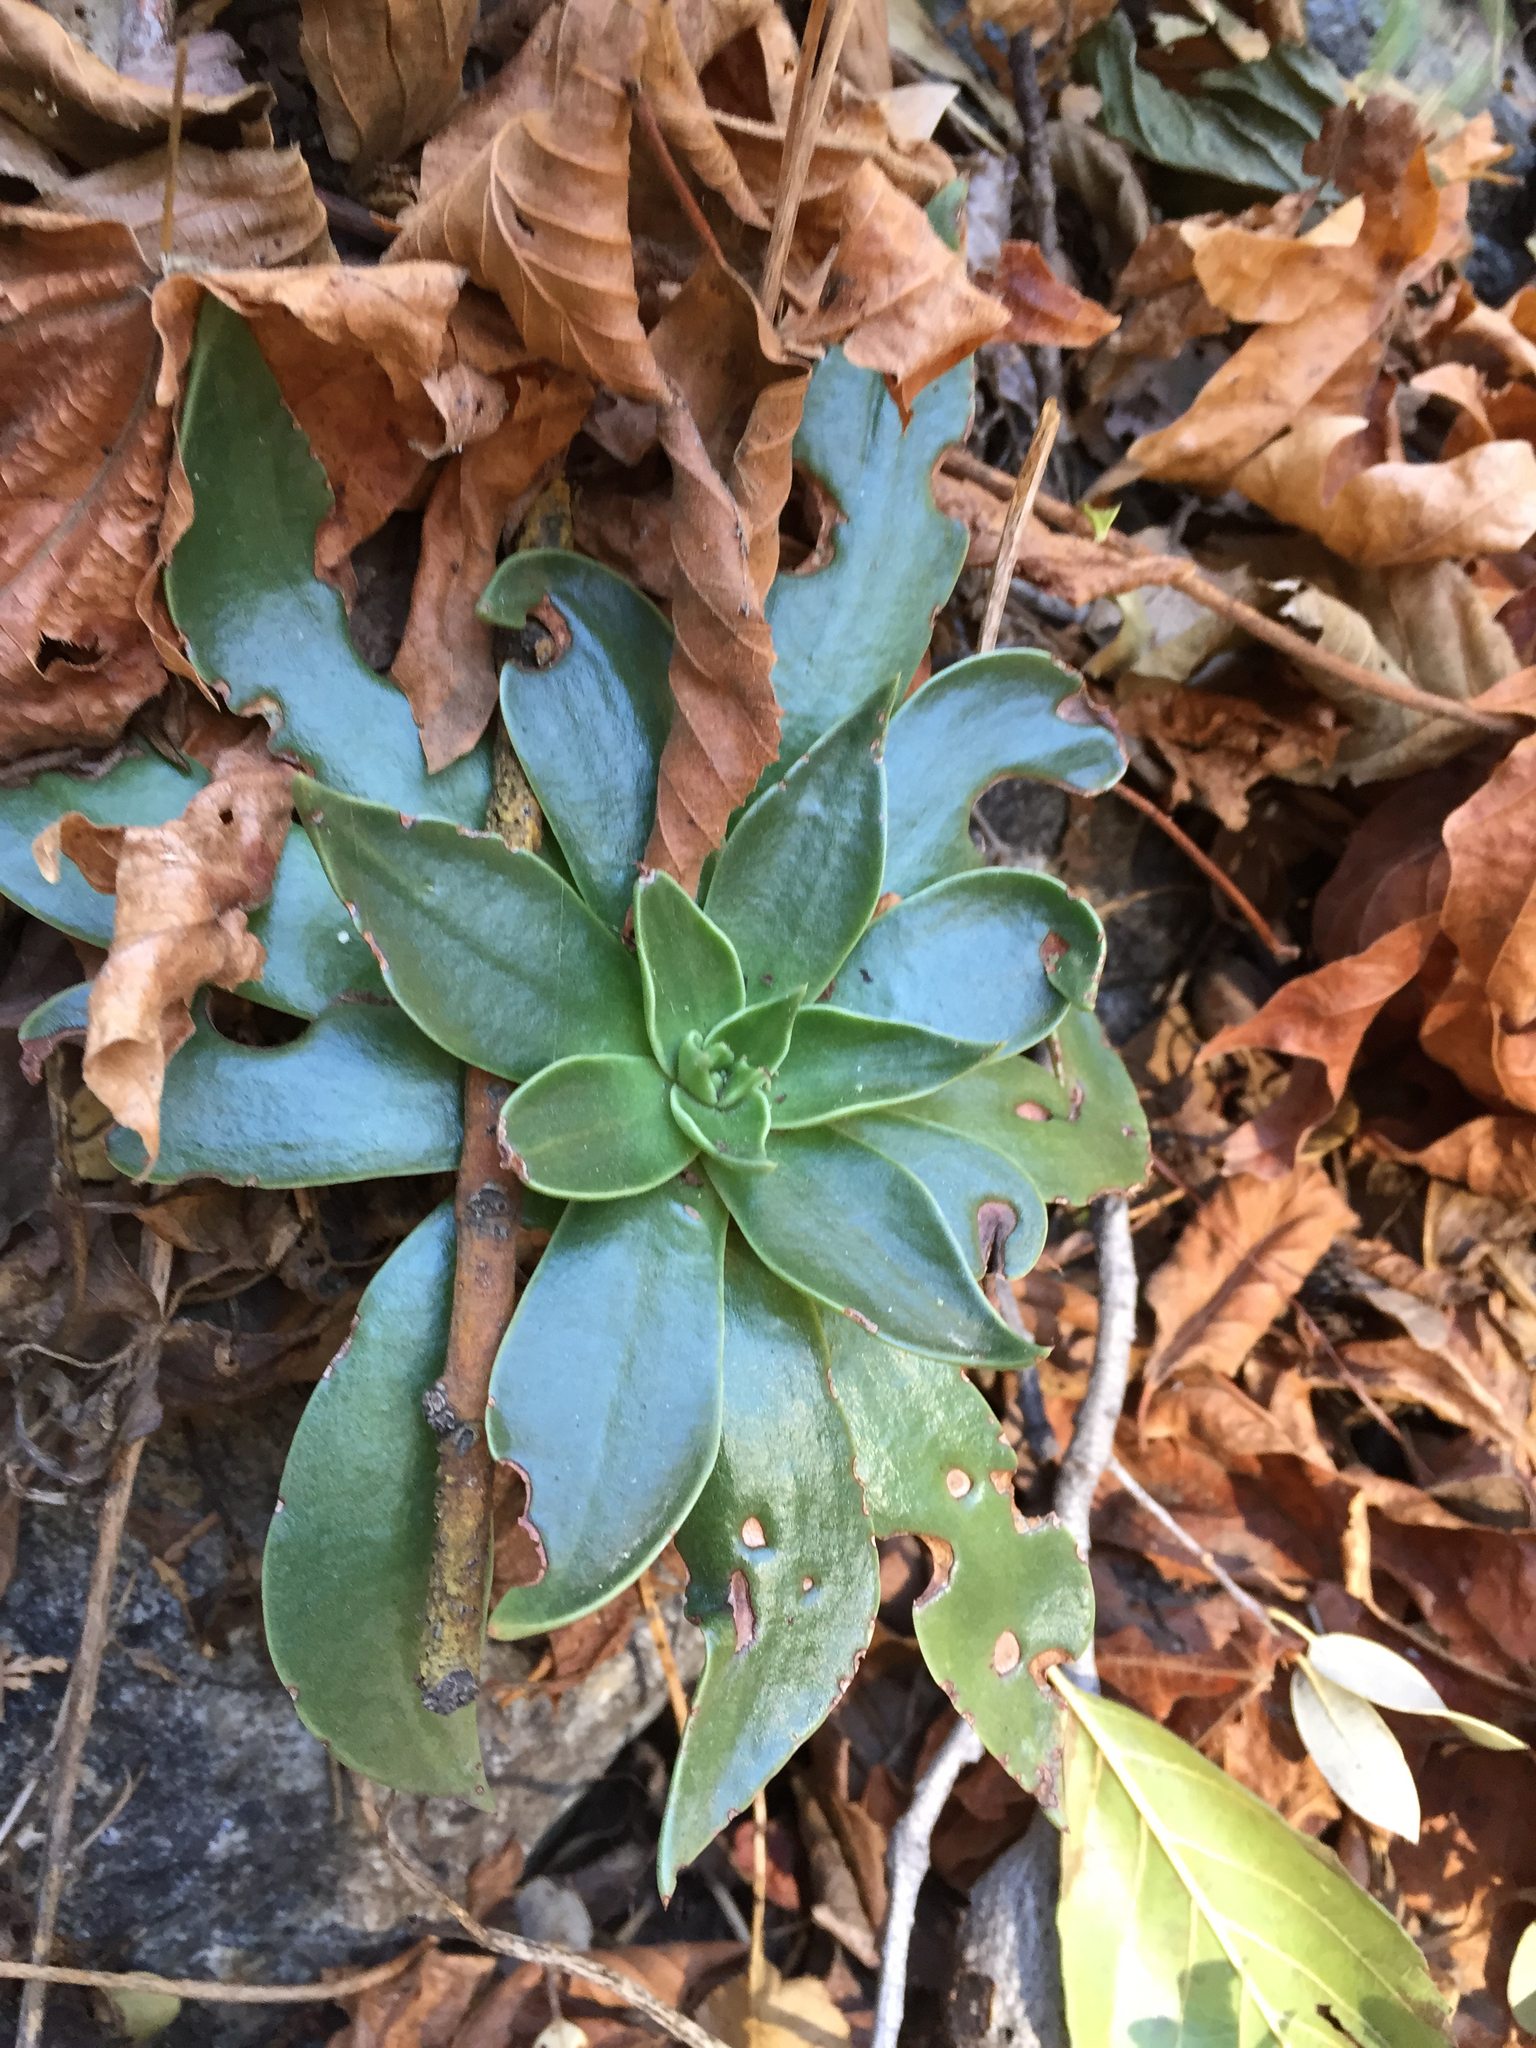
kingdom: Plantae
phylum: Tracheophyta
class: Magnoliopsida
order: Saxifragales
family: Crassulaceae
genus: Dudleya
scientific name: Dudleya cymosa
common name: Canyon dudleya
